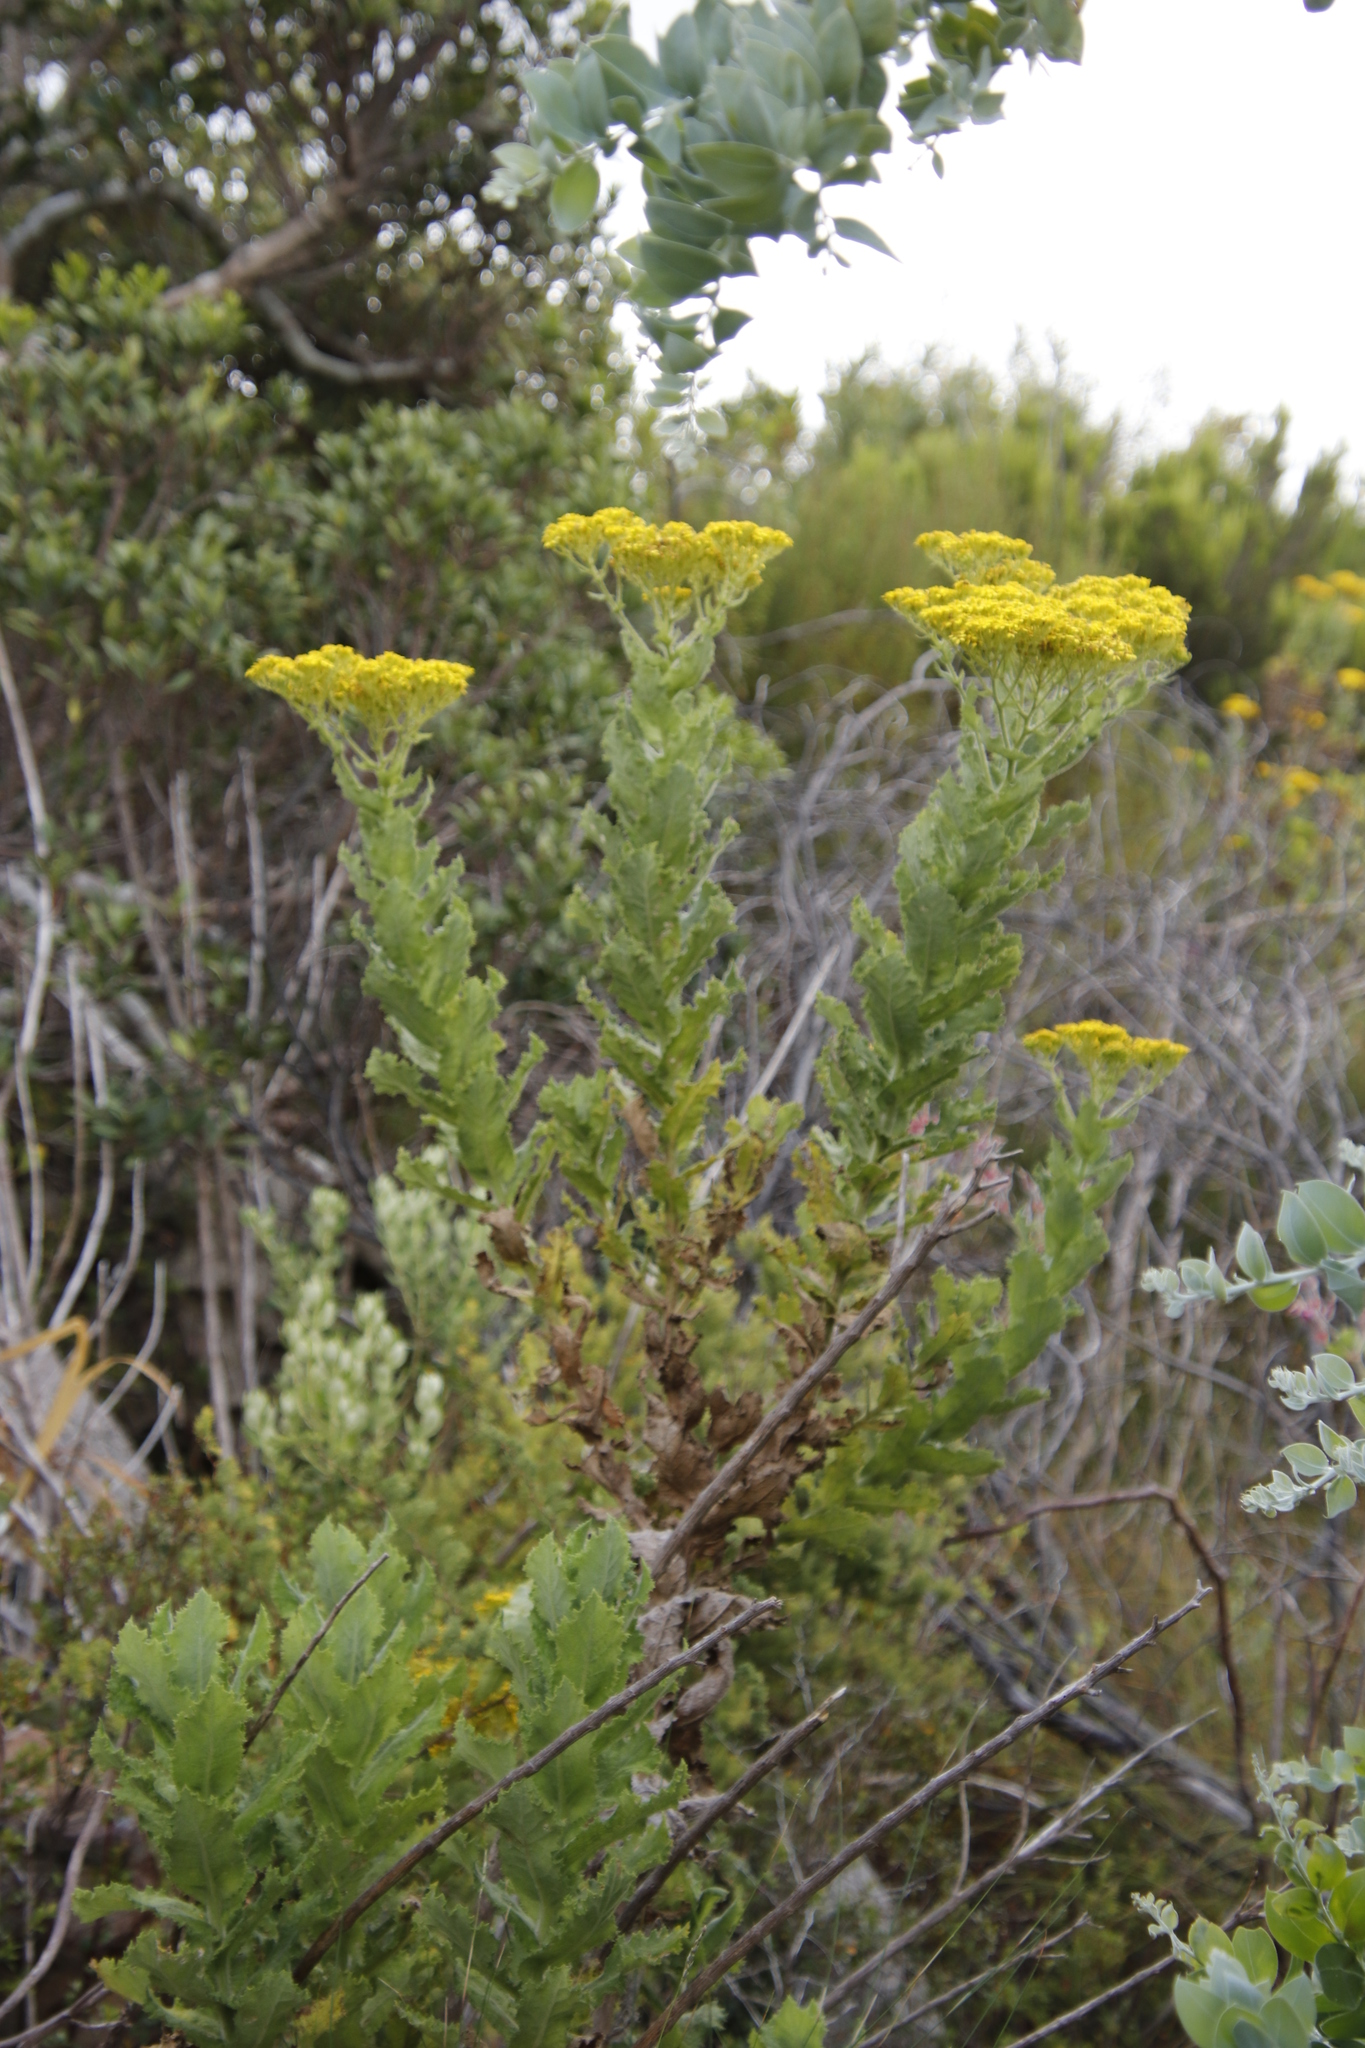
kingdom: Plantae
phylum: Tracheophyta
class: Magnoliopsida
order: Asterales
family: Asteraceae
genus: Senecio
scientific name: Senecio rigidus
